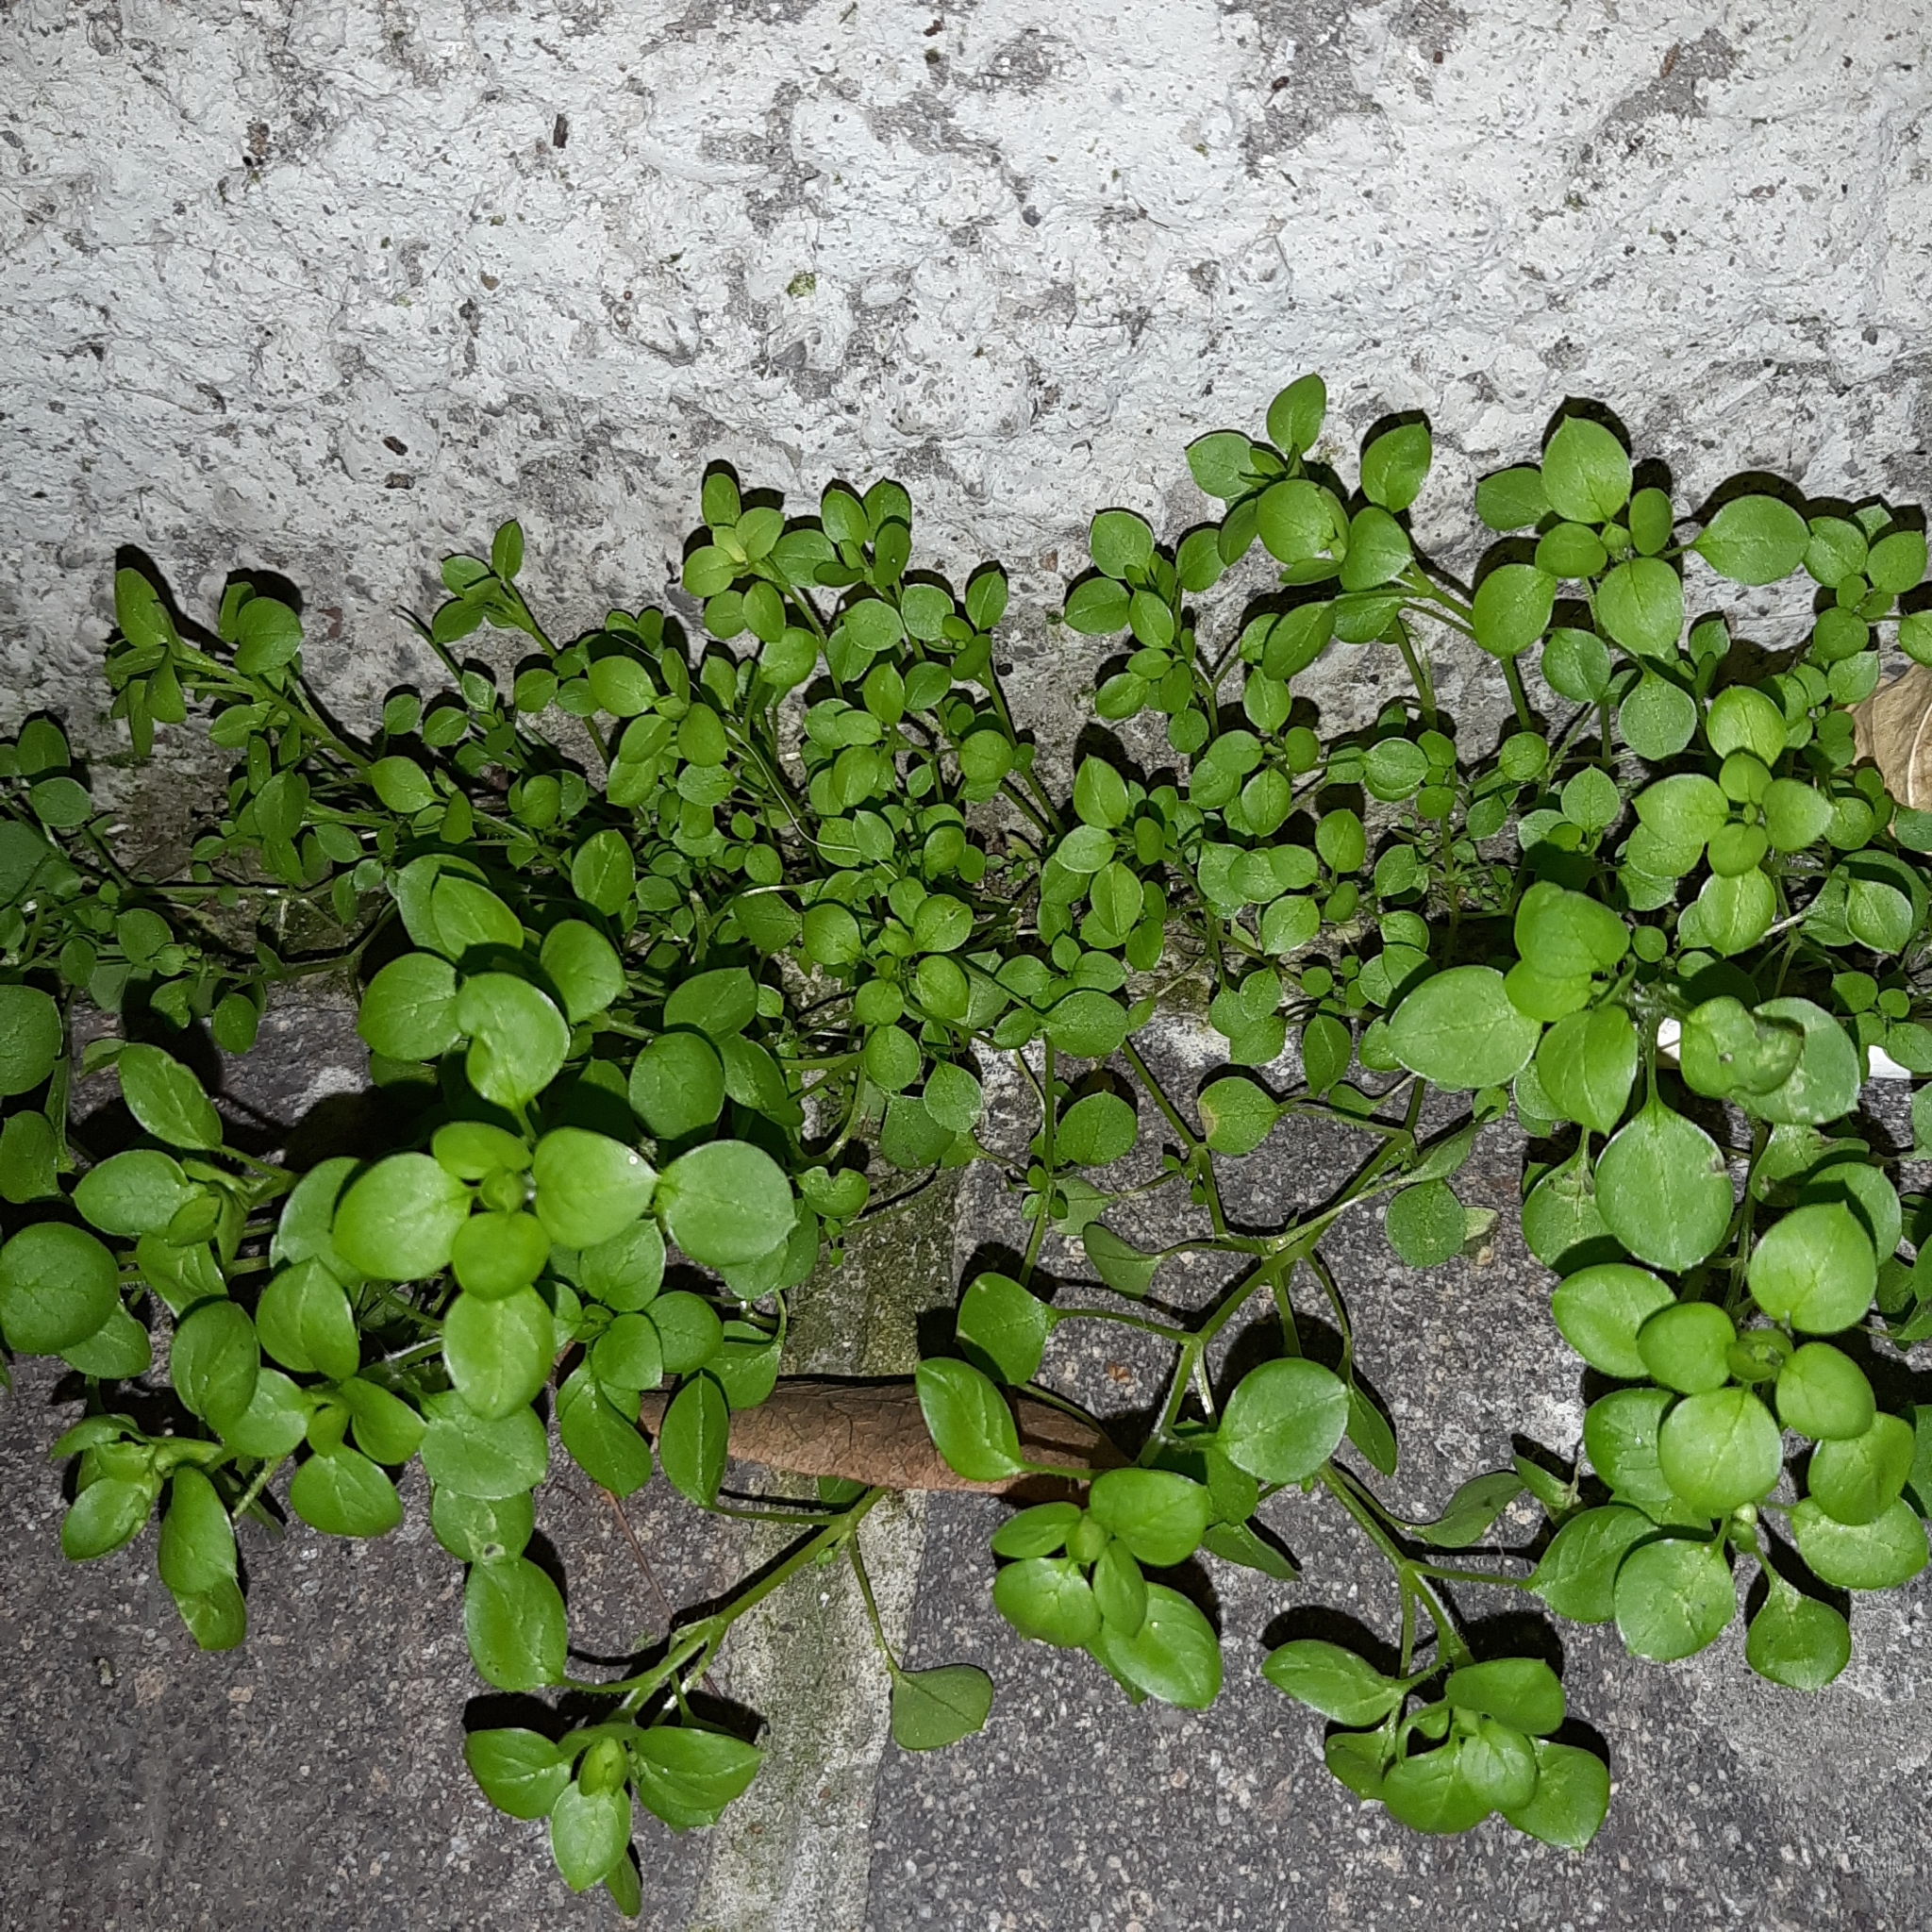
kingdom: Plantae
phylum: Tracheophyta
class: Magnoliopsida
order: Caryophyllales
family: Caryophyllaceae
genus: Stellaria
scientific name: Stellaria media
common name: Common chickweed
